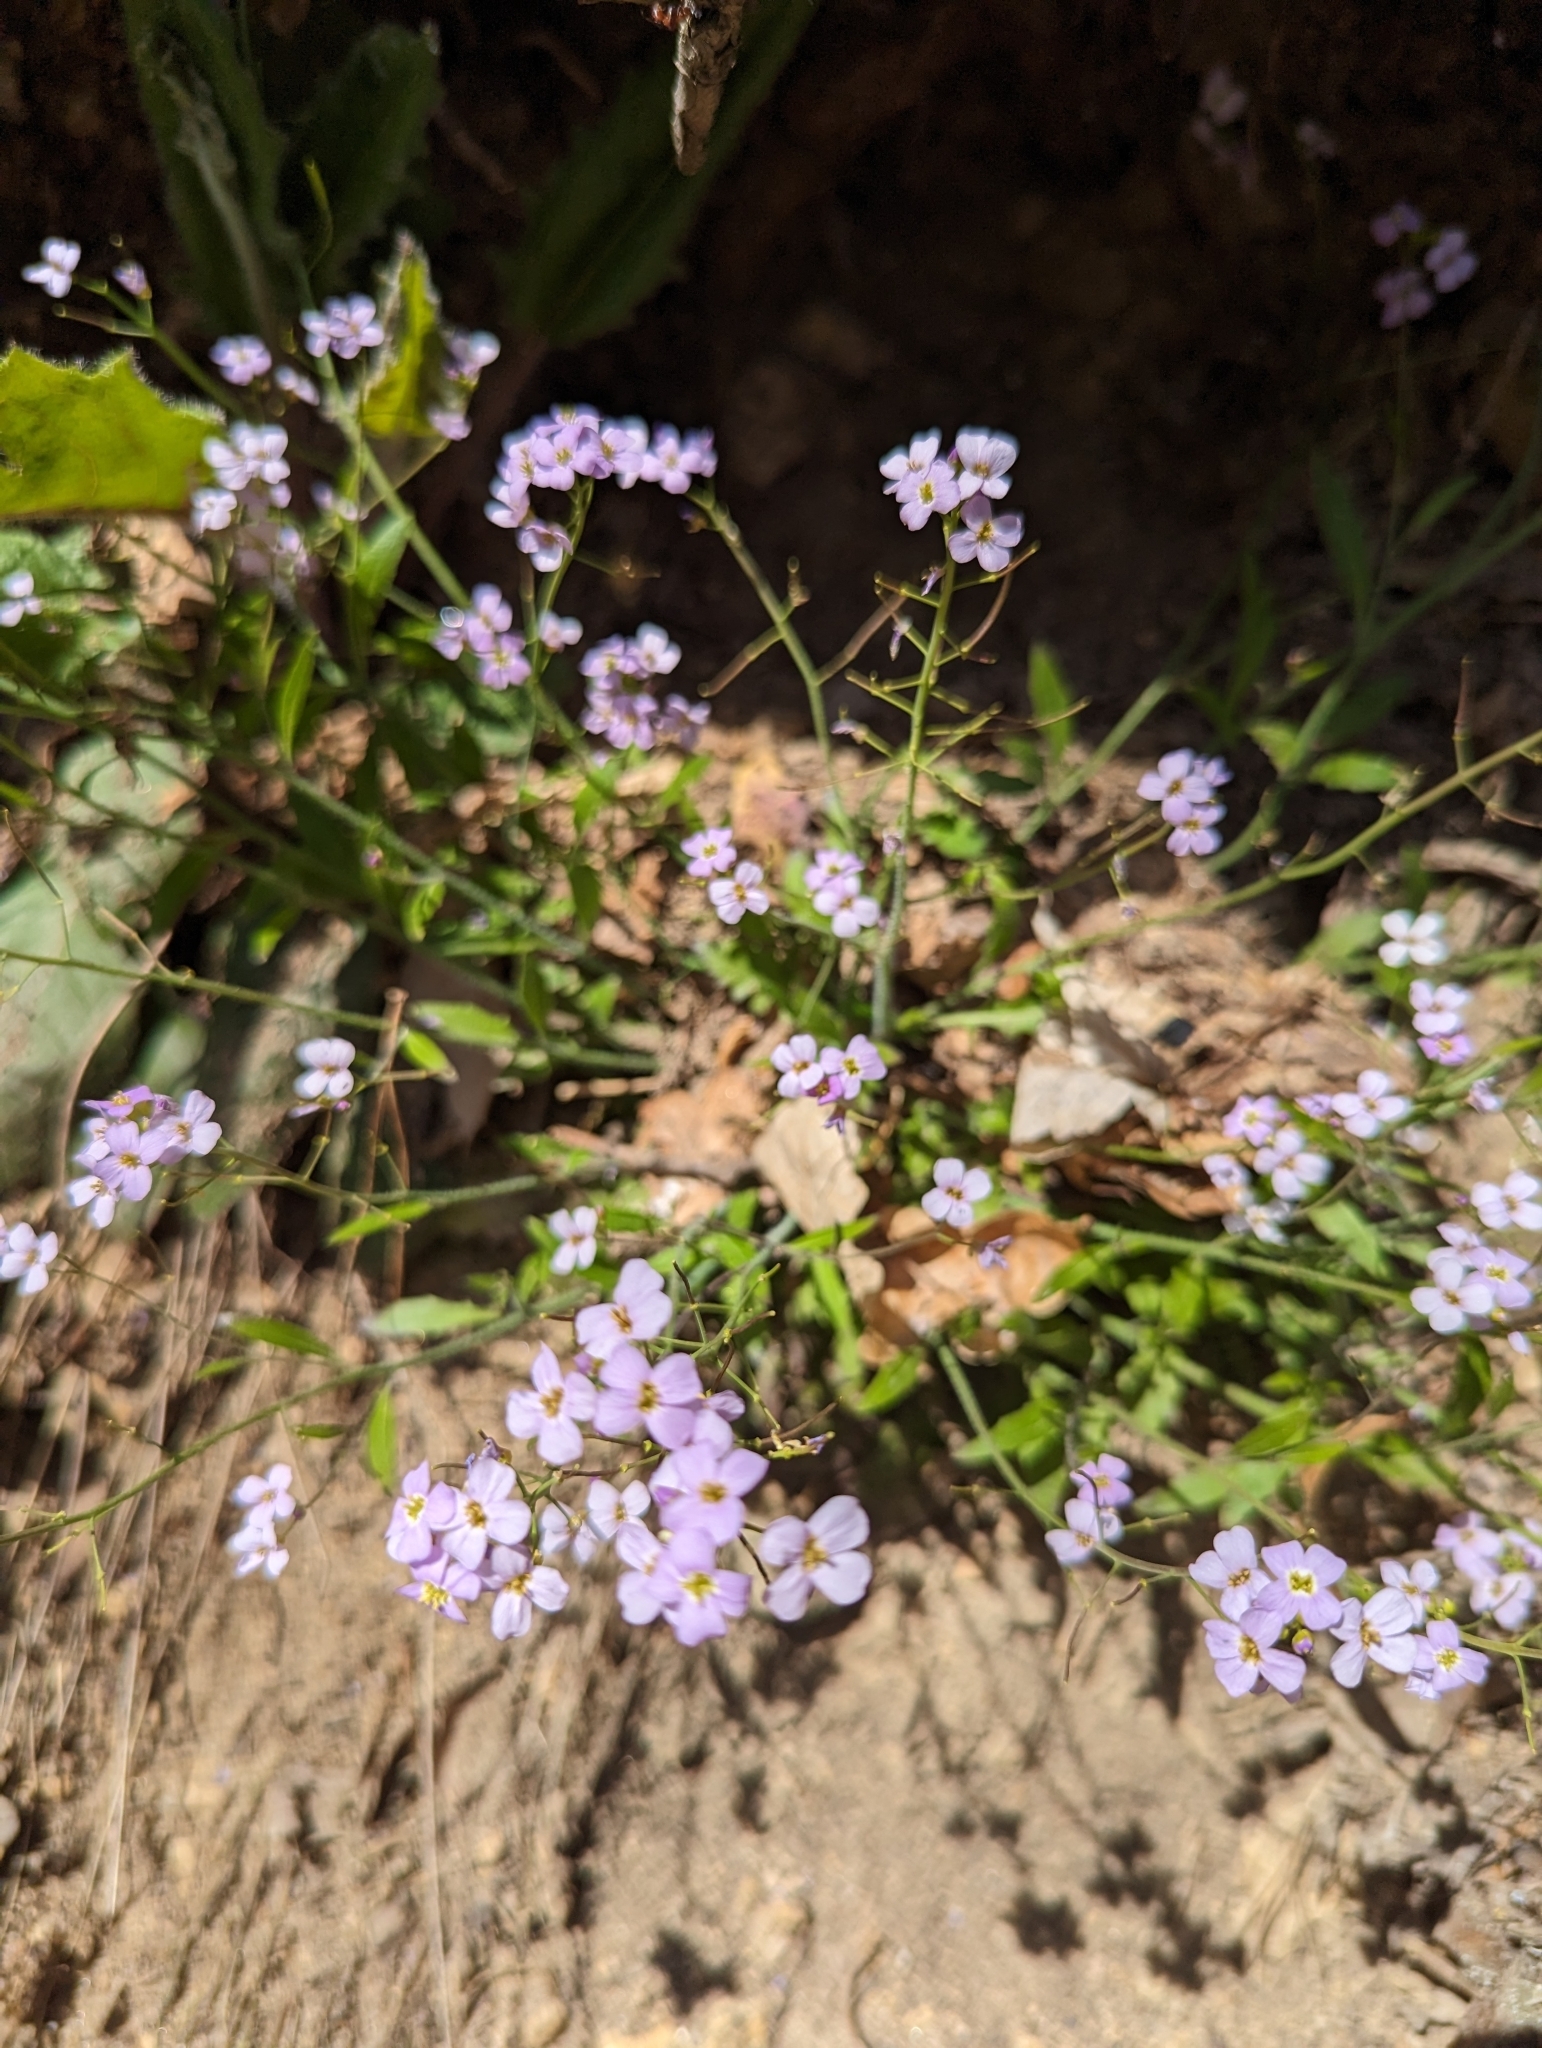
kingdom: Plantae
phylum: Tracheophyta
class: Magnoliopsida
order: Brassicales
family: Brassicaceae
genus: Arabidopsis
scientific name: Arabidopsis arenosa
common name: Sand rock-cress
